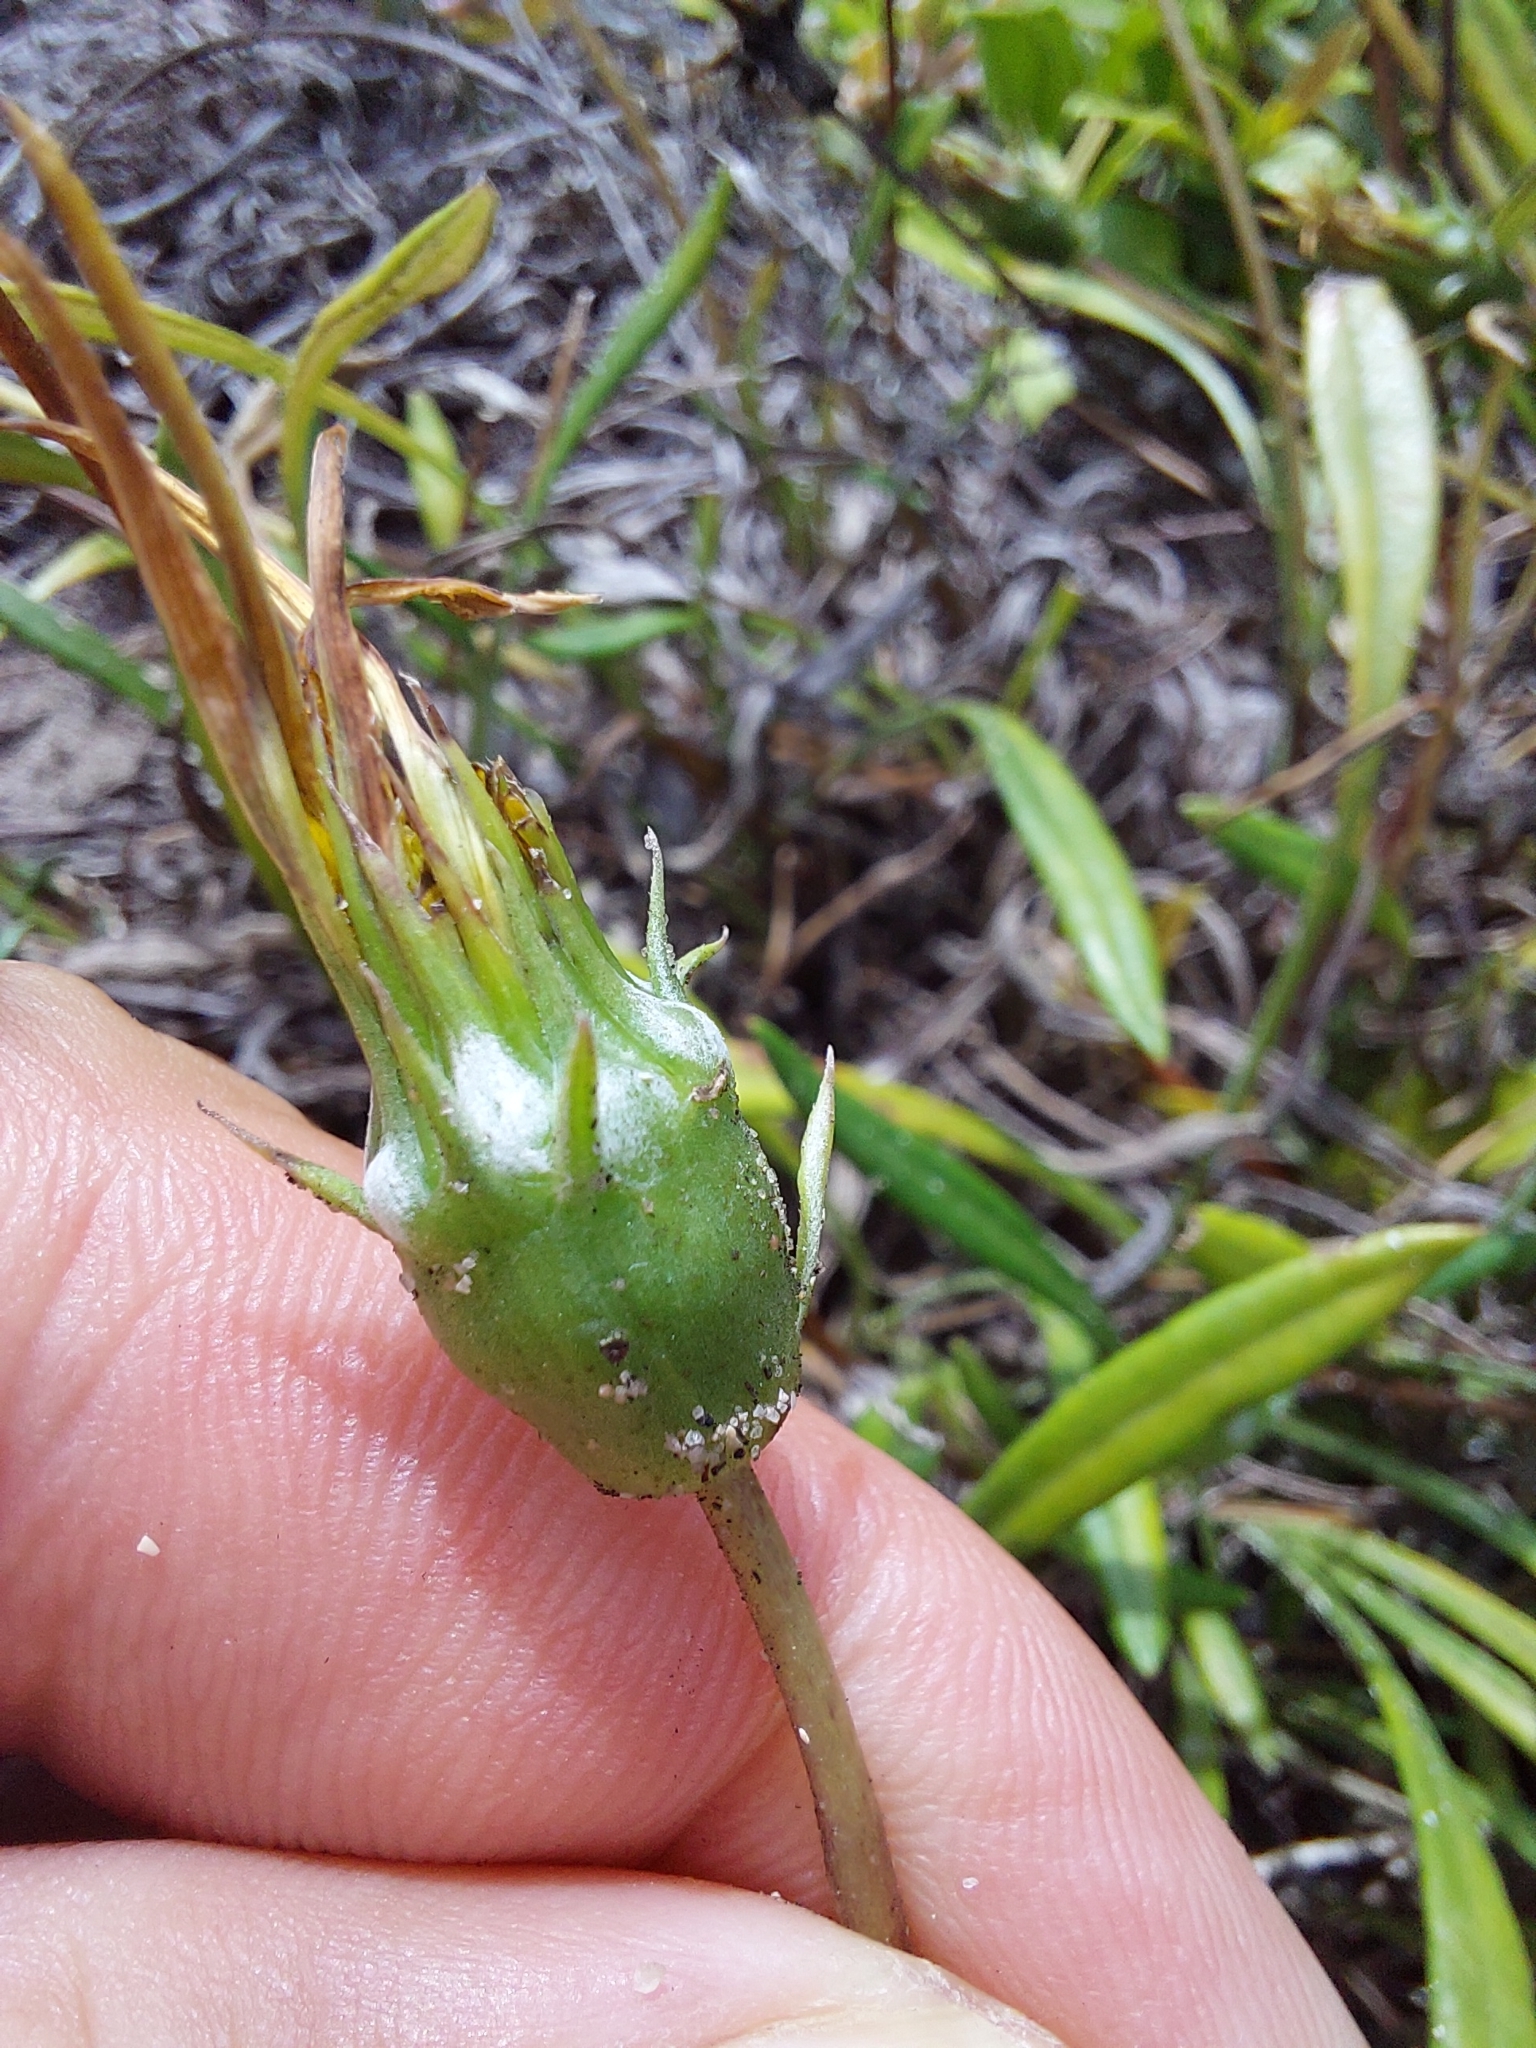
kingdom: Plantae
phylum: Tracheophyta
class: Magnoliopsida
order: Asterales
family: Asteraceae
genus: Gazania
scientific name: Gazania rigens
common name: Treasureflower
